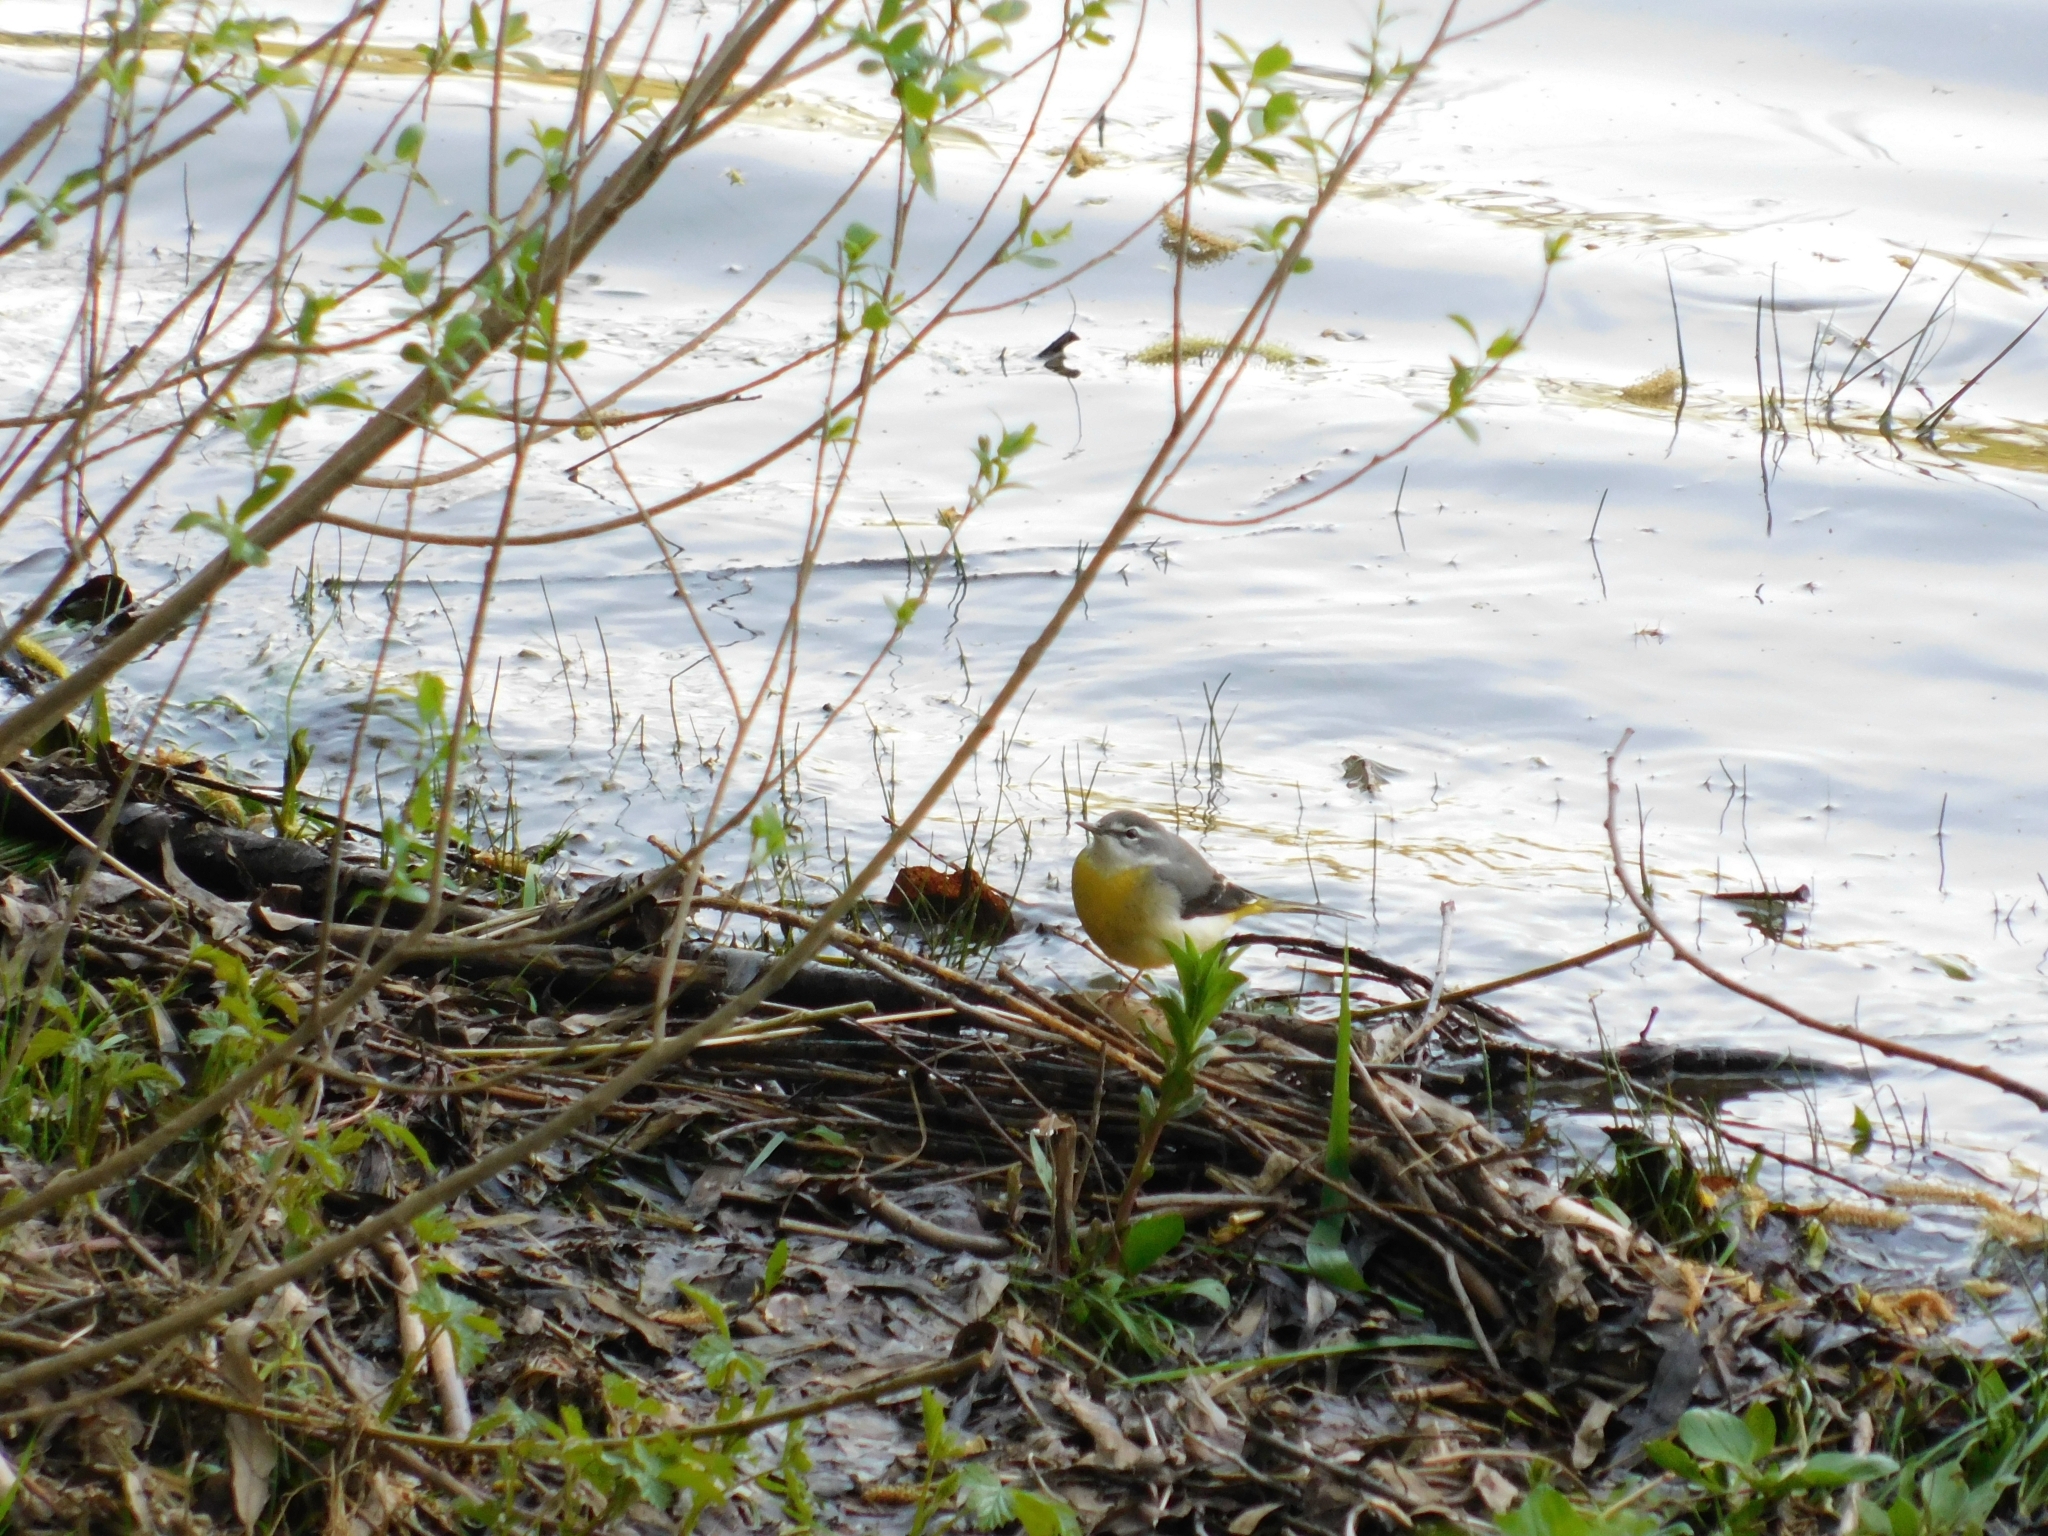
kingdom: Animalia
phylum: Chordata
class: Aves
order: Passeriformes
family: Motacillidae
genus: Motacilla
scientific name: Motacilla cinerea
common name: Grey wagtail
